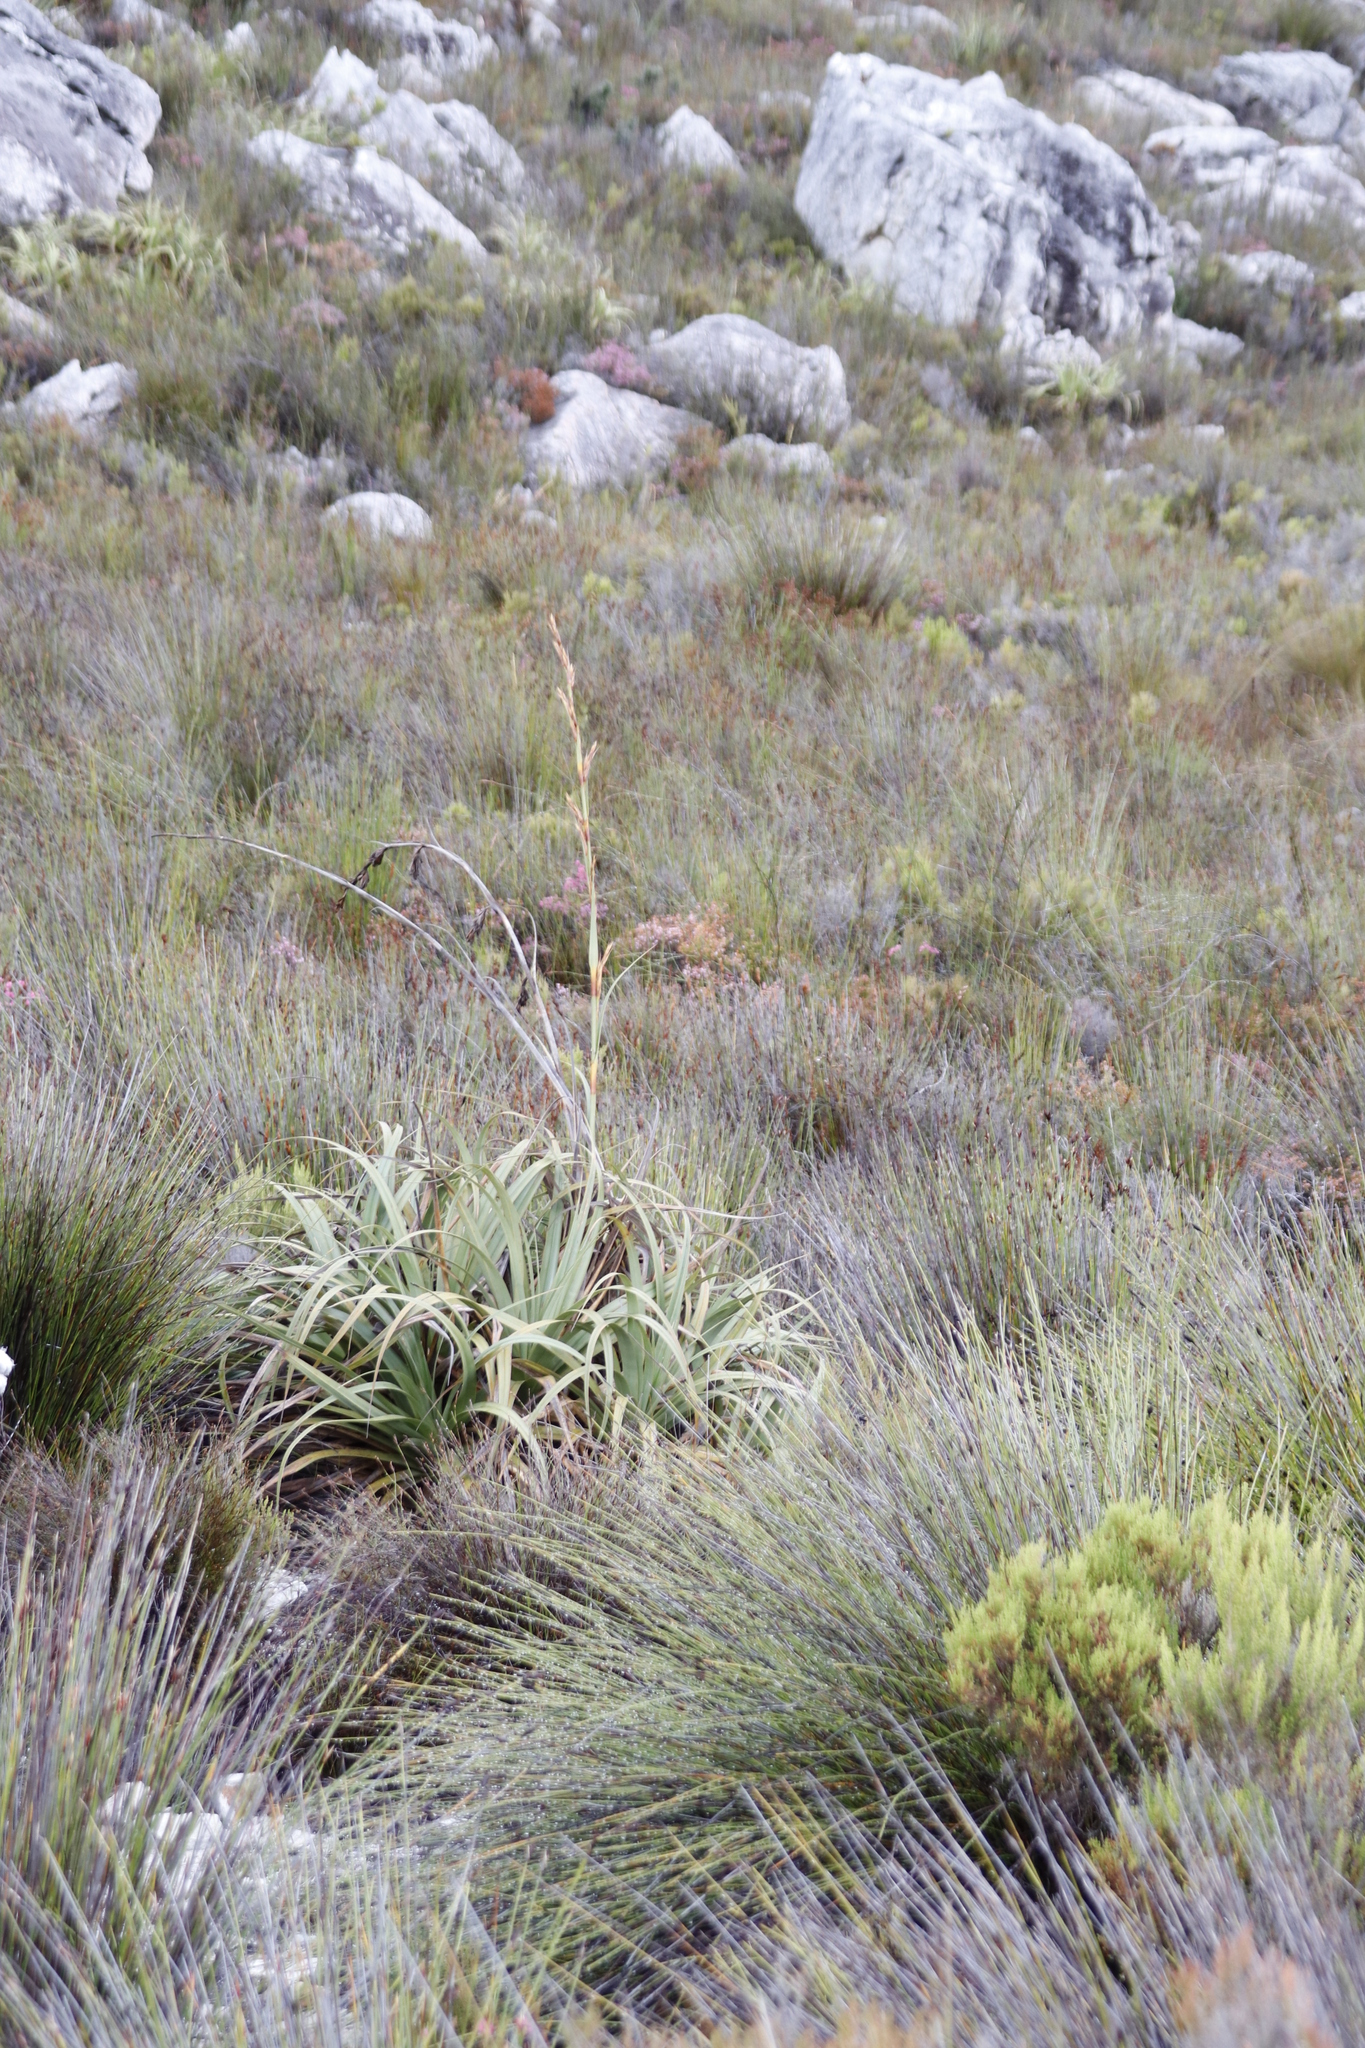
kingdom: Plantae
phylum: Tracheophyta
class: Liliopsida
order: Poales
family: Cyperaceae
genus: Tetraria
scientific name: Tetraria thermalis
